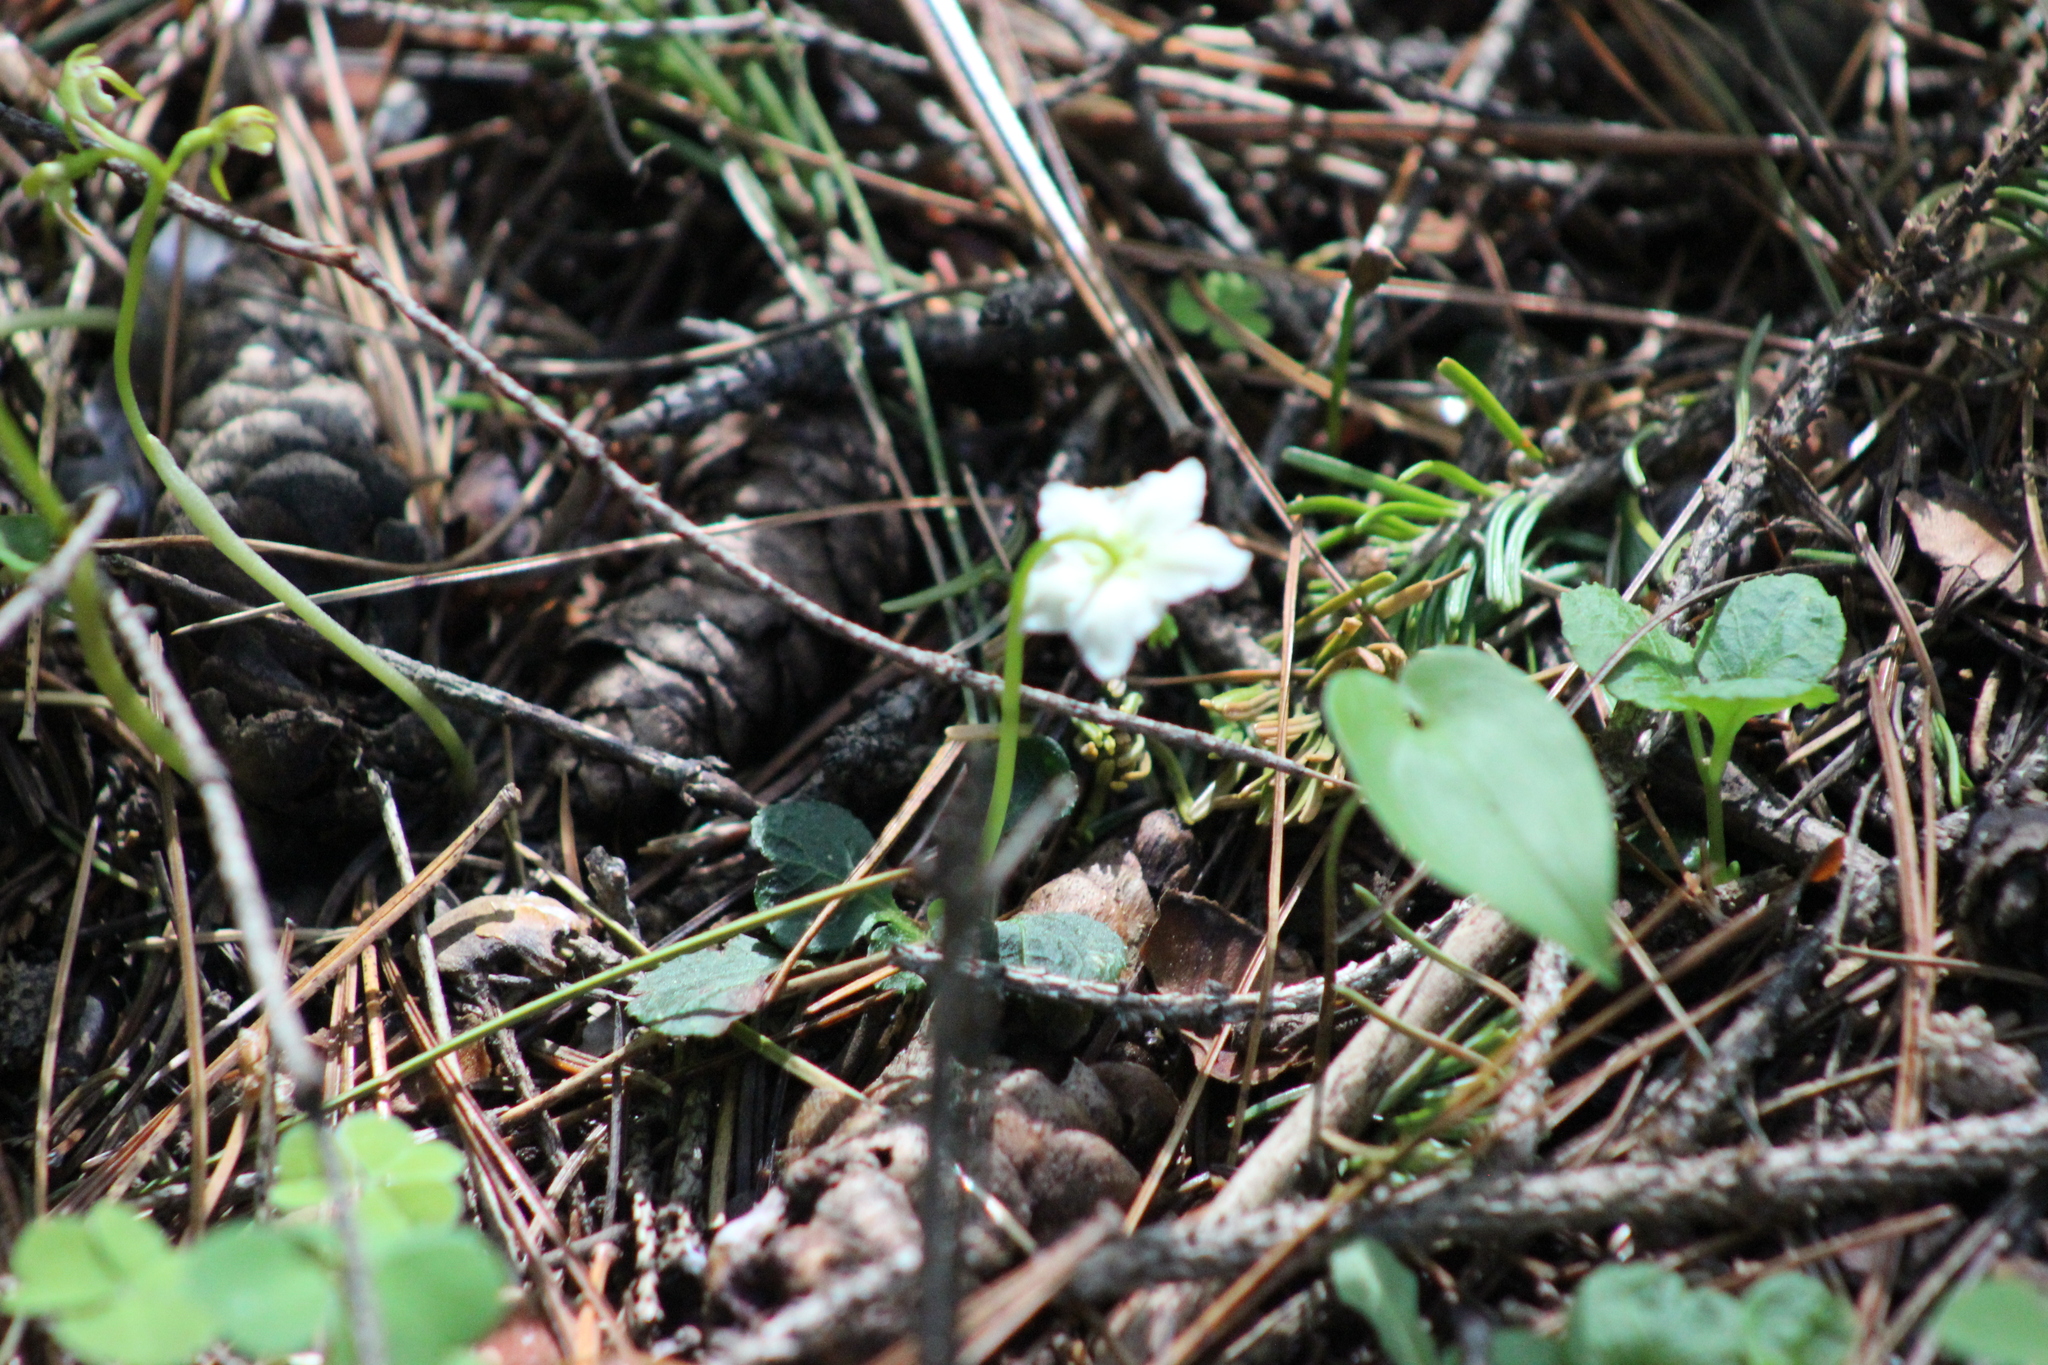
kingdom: Plantae
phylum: Tracheophyta
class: Magnoliopsida
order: Ericales
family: Ericaceae
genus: Moneses
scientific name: Moneses uniflora
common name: One-flowered wintergreen
